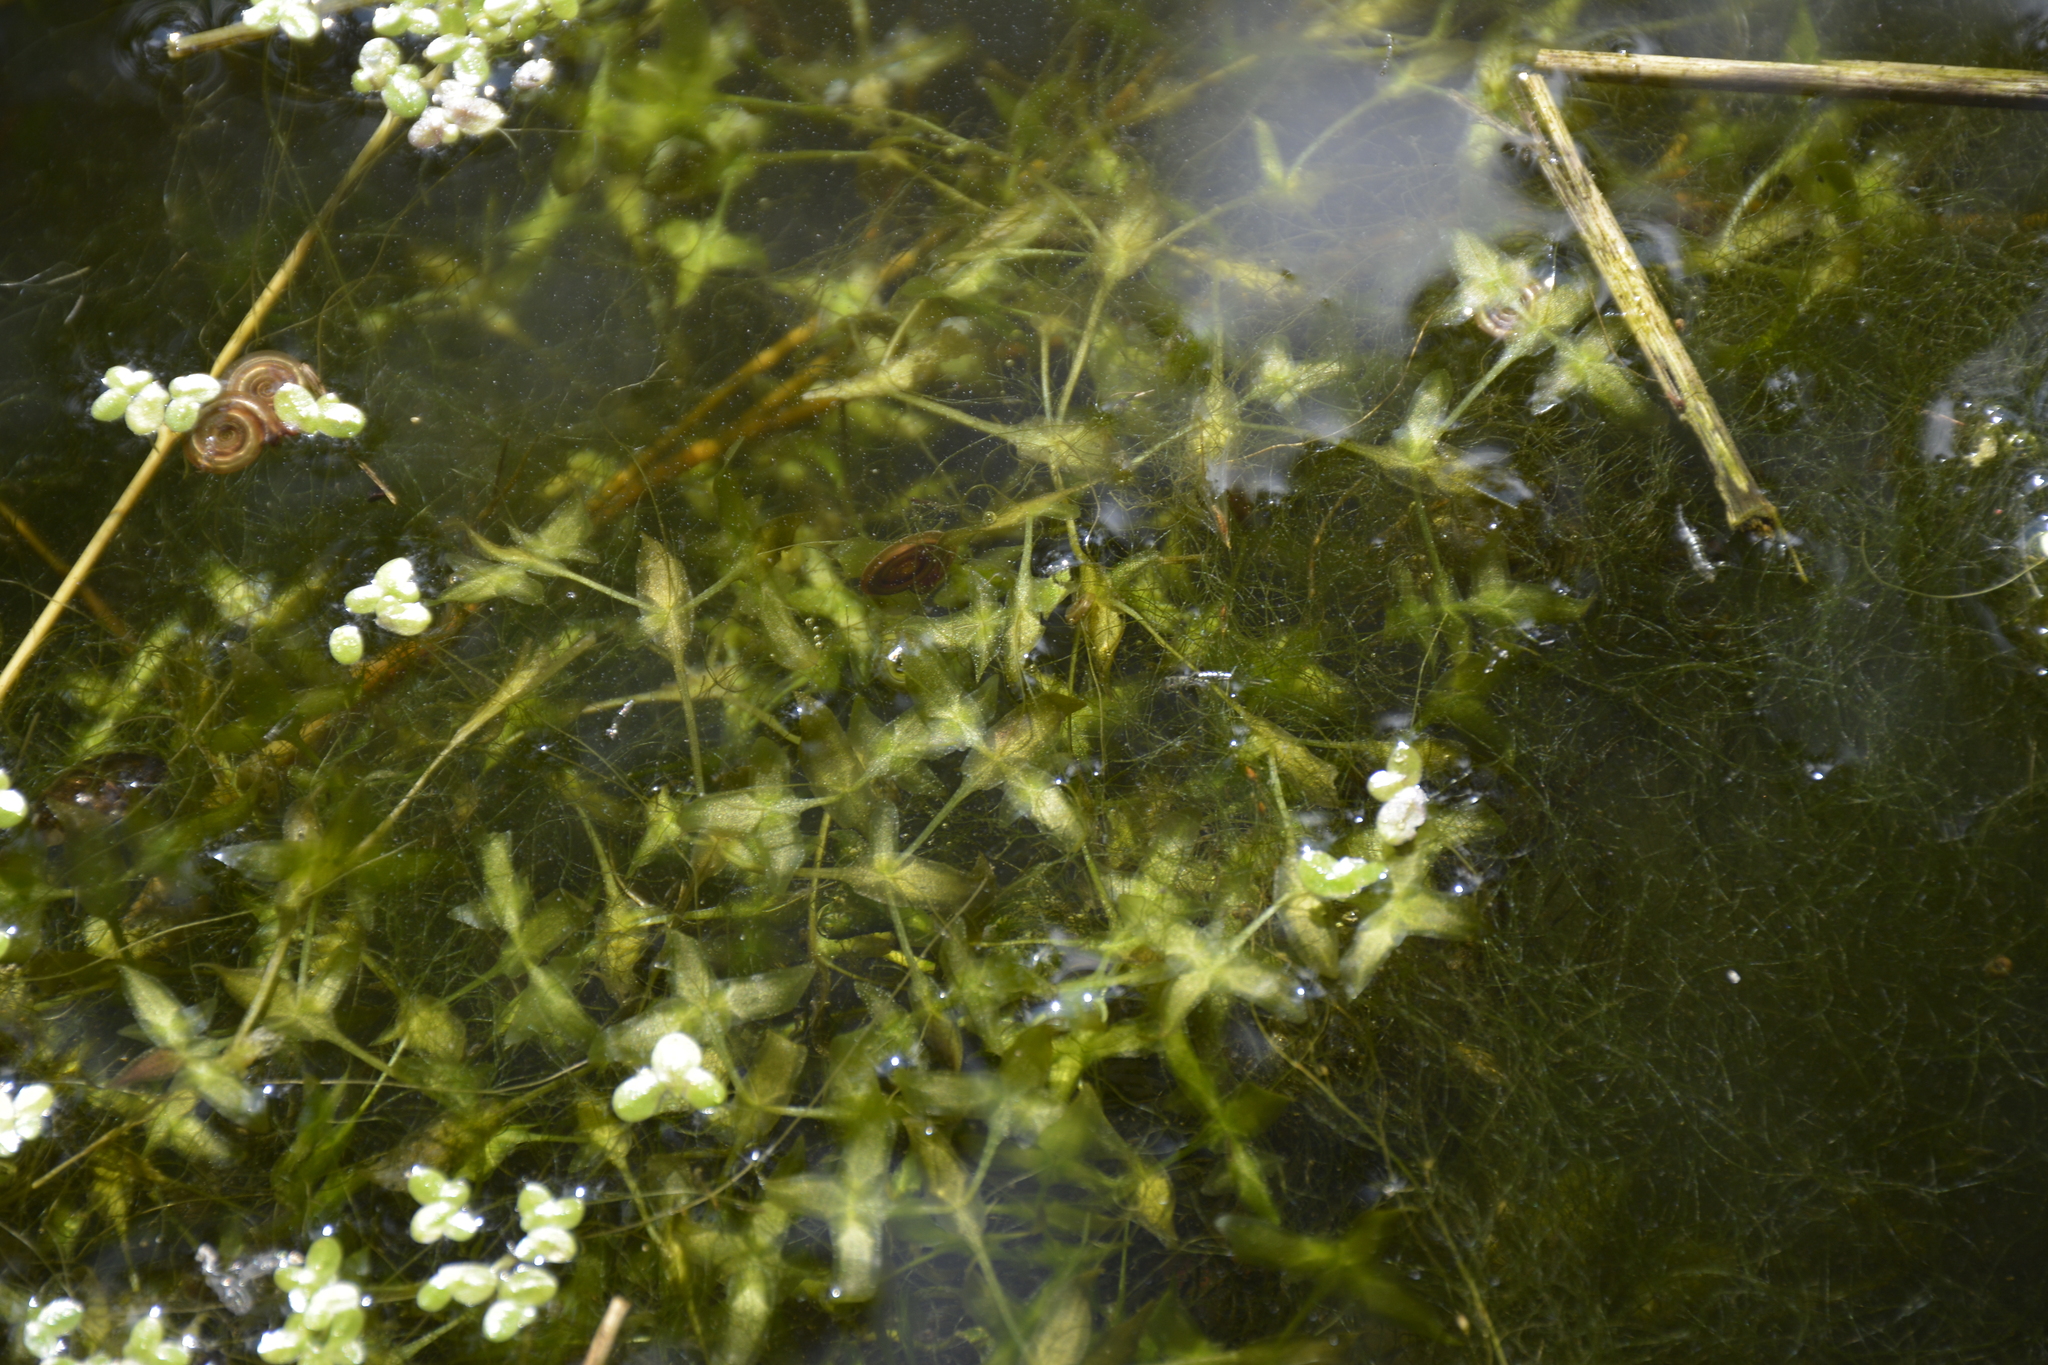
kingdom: Plantae
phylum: Tracheophyta
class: Liliopsida
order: Alismatales
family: Araceae
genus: Lemna
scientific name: Lemna trisulca
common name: Ivy-leaved duckweed
